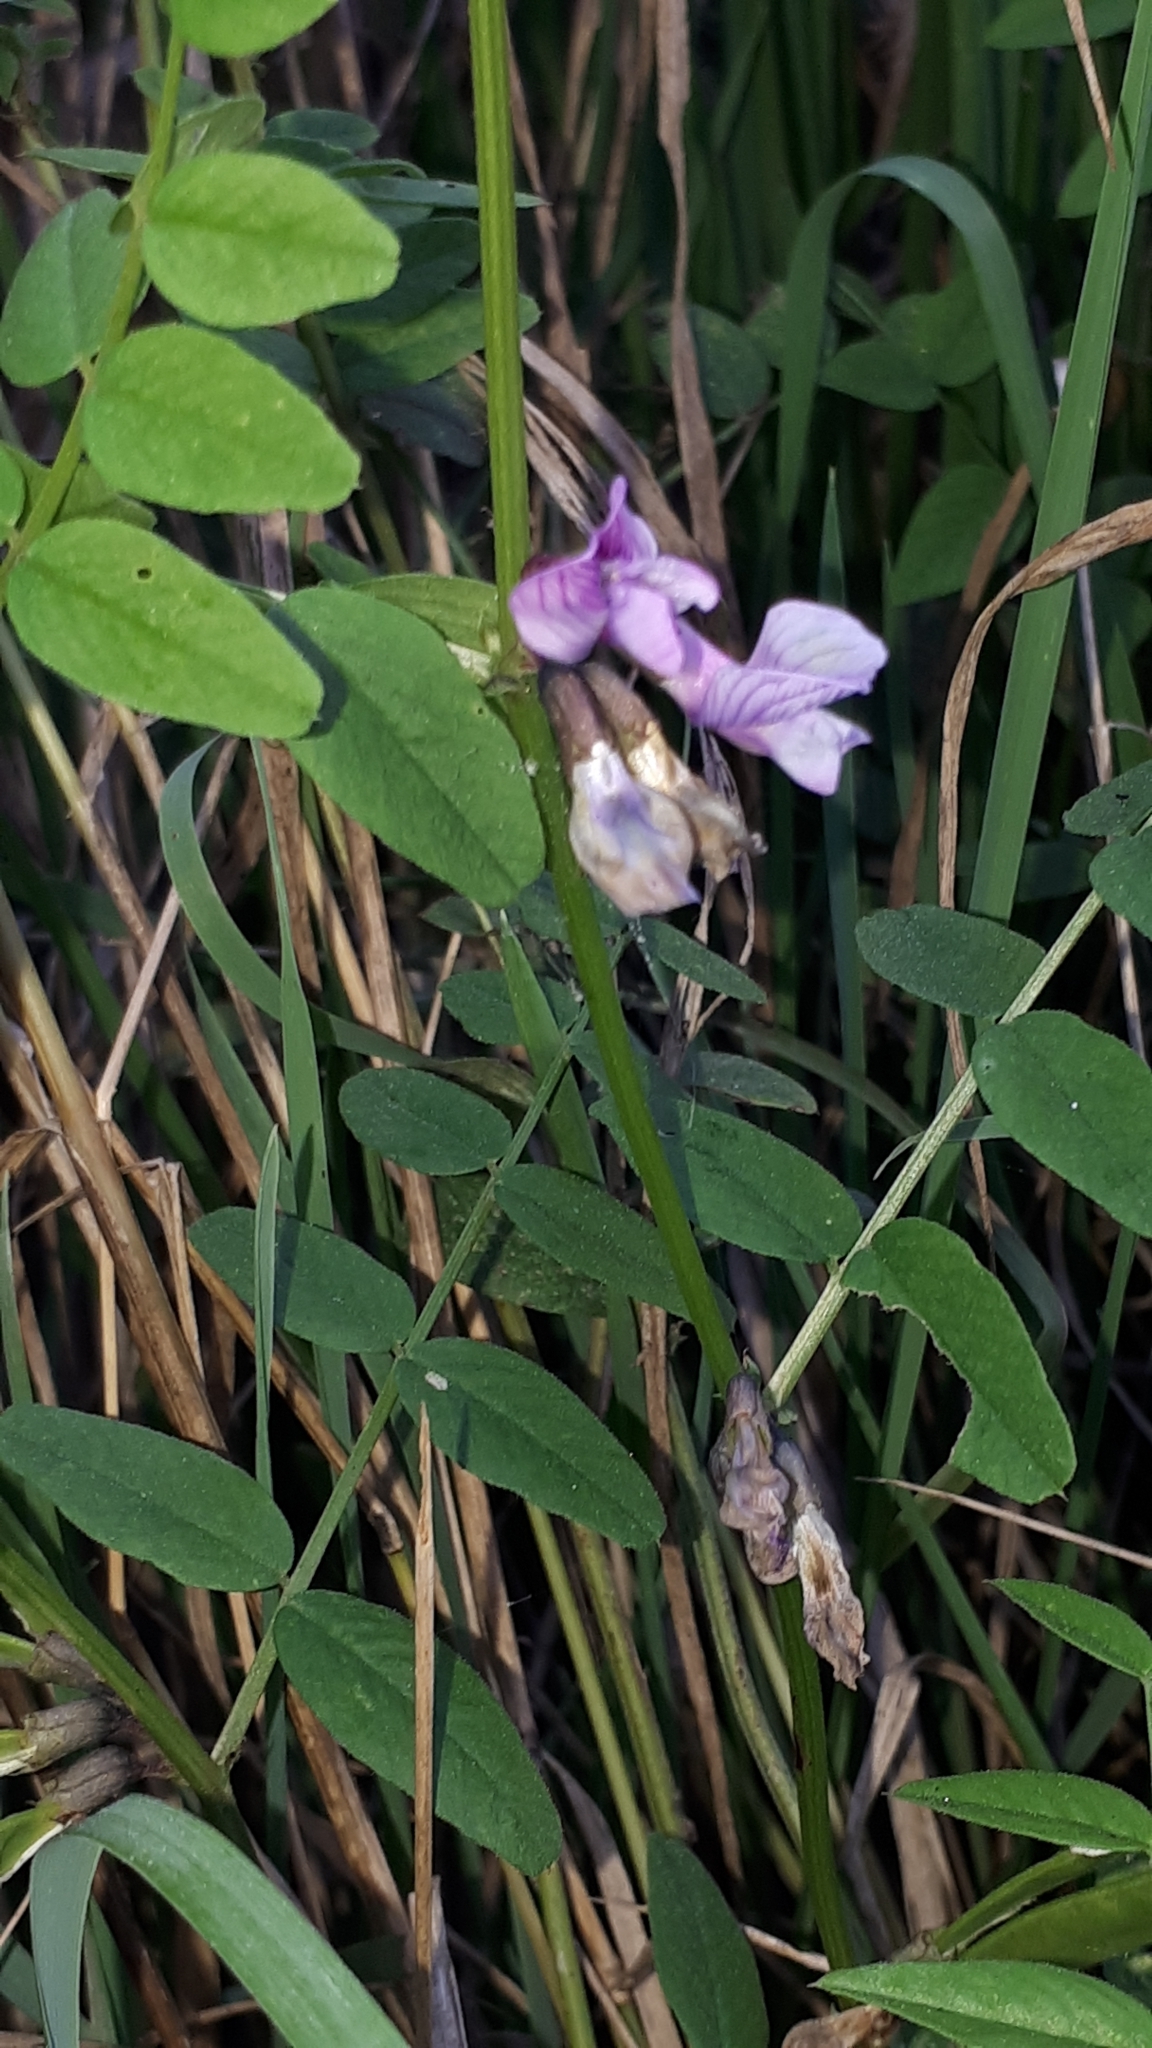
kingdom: Plantae
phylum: Tracheophyta
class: Magnoliopsida
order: Fabales
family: Fabaceae
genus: Vicia
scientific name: Vicia sepium
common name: Bush vetch
